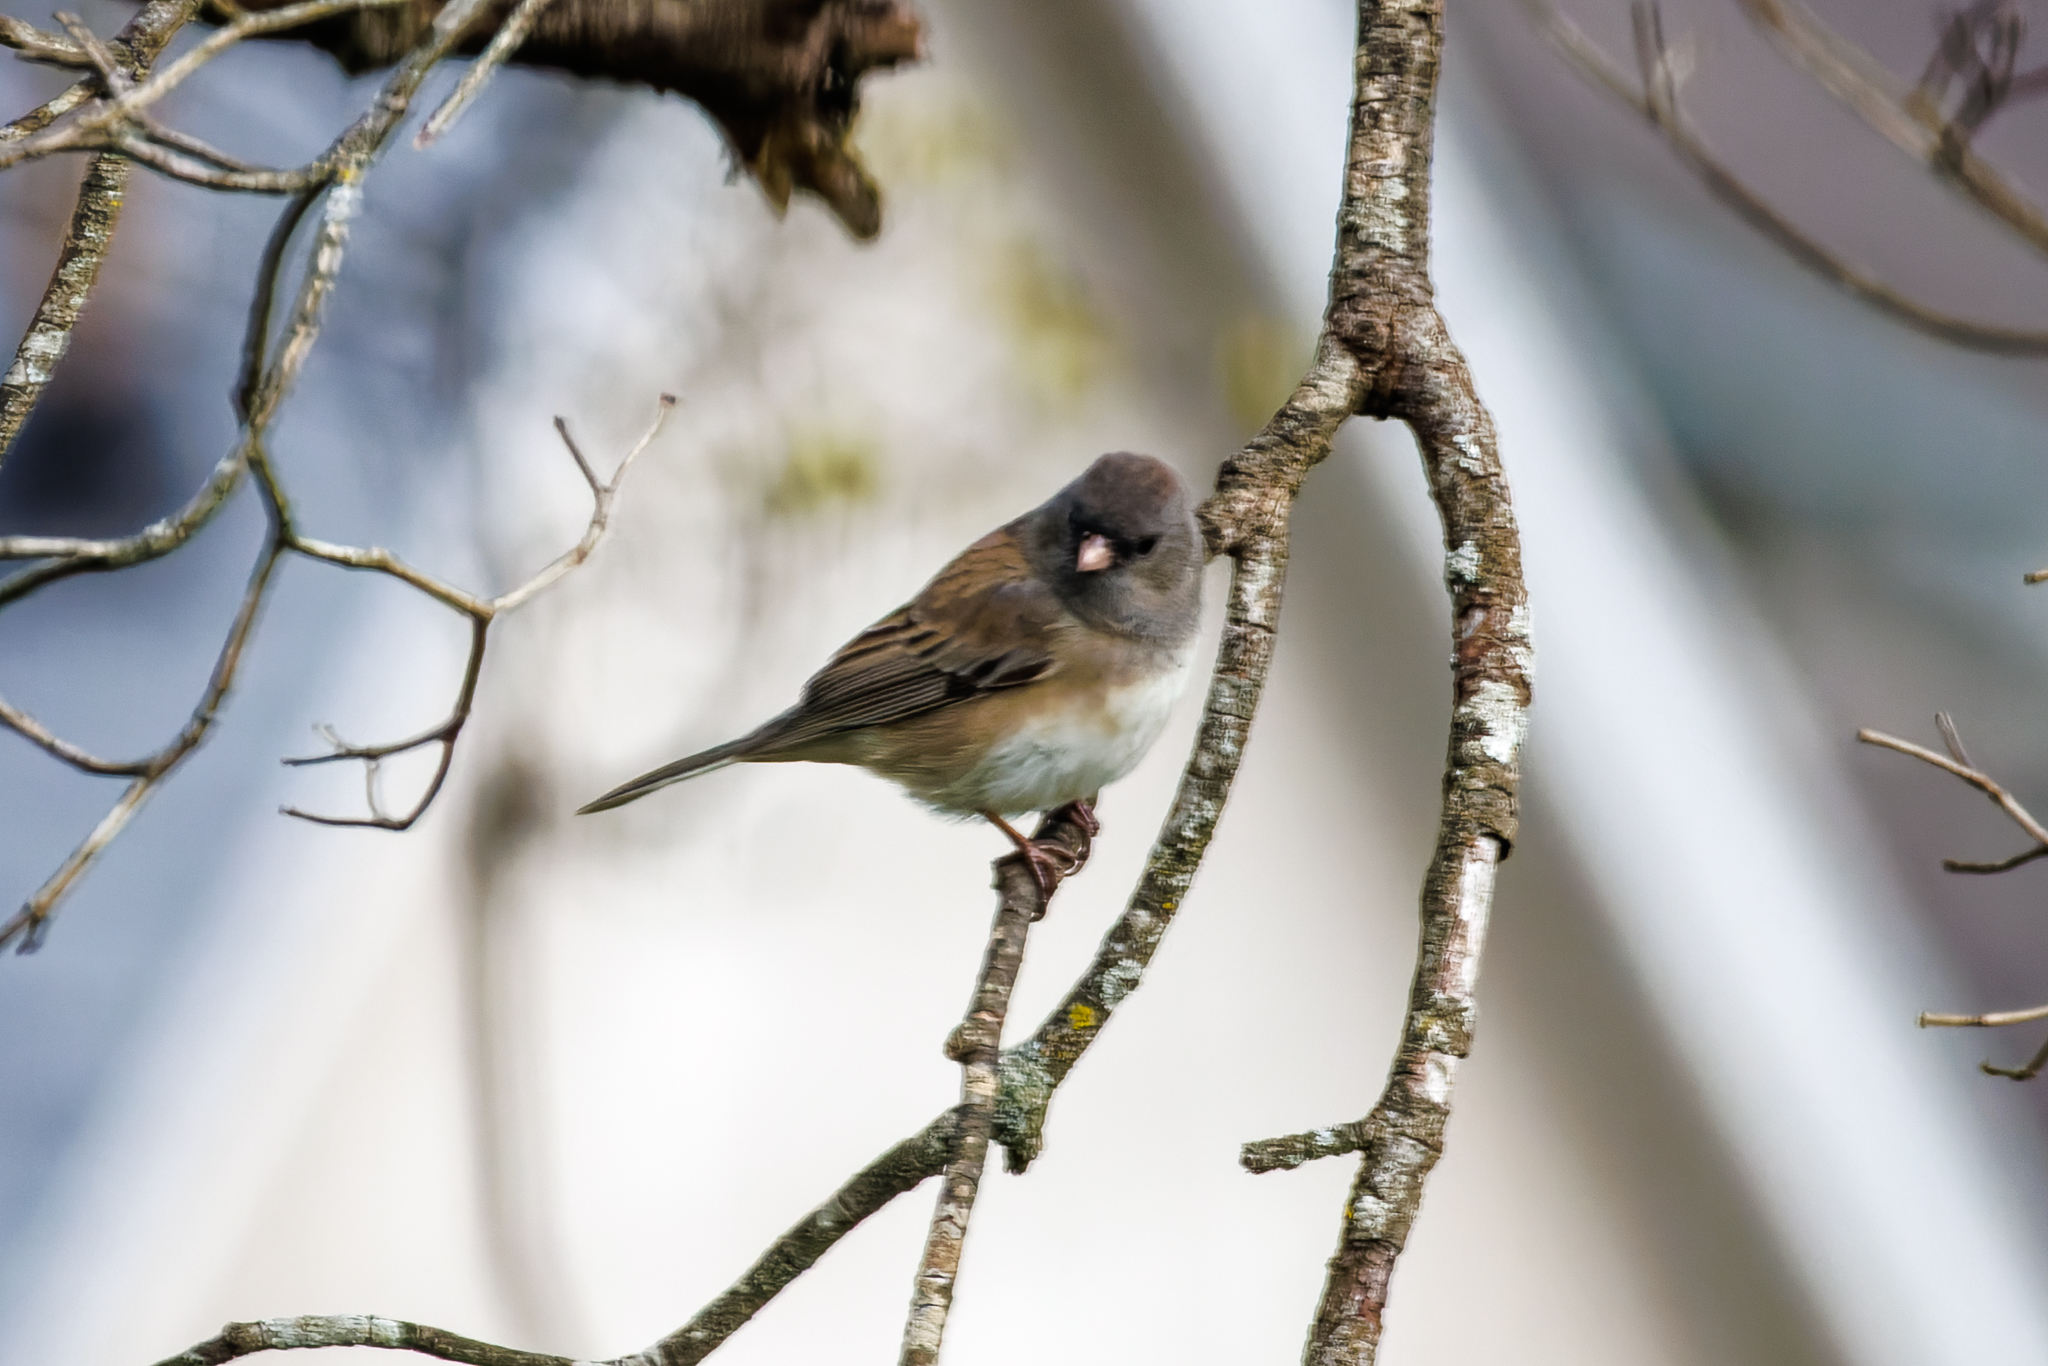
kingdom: Animalia
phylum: Chordata
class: Aves
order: Passeriformes
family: Passerellidae
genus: Junco
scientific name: Junco hyemalis
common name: Dark-eyed junco
